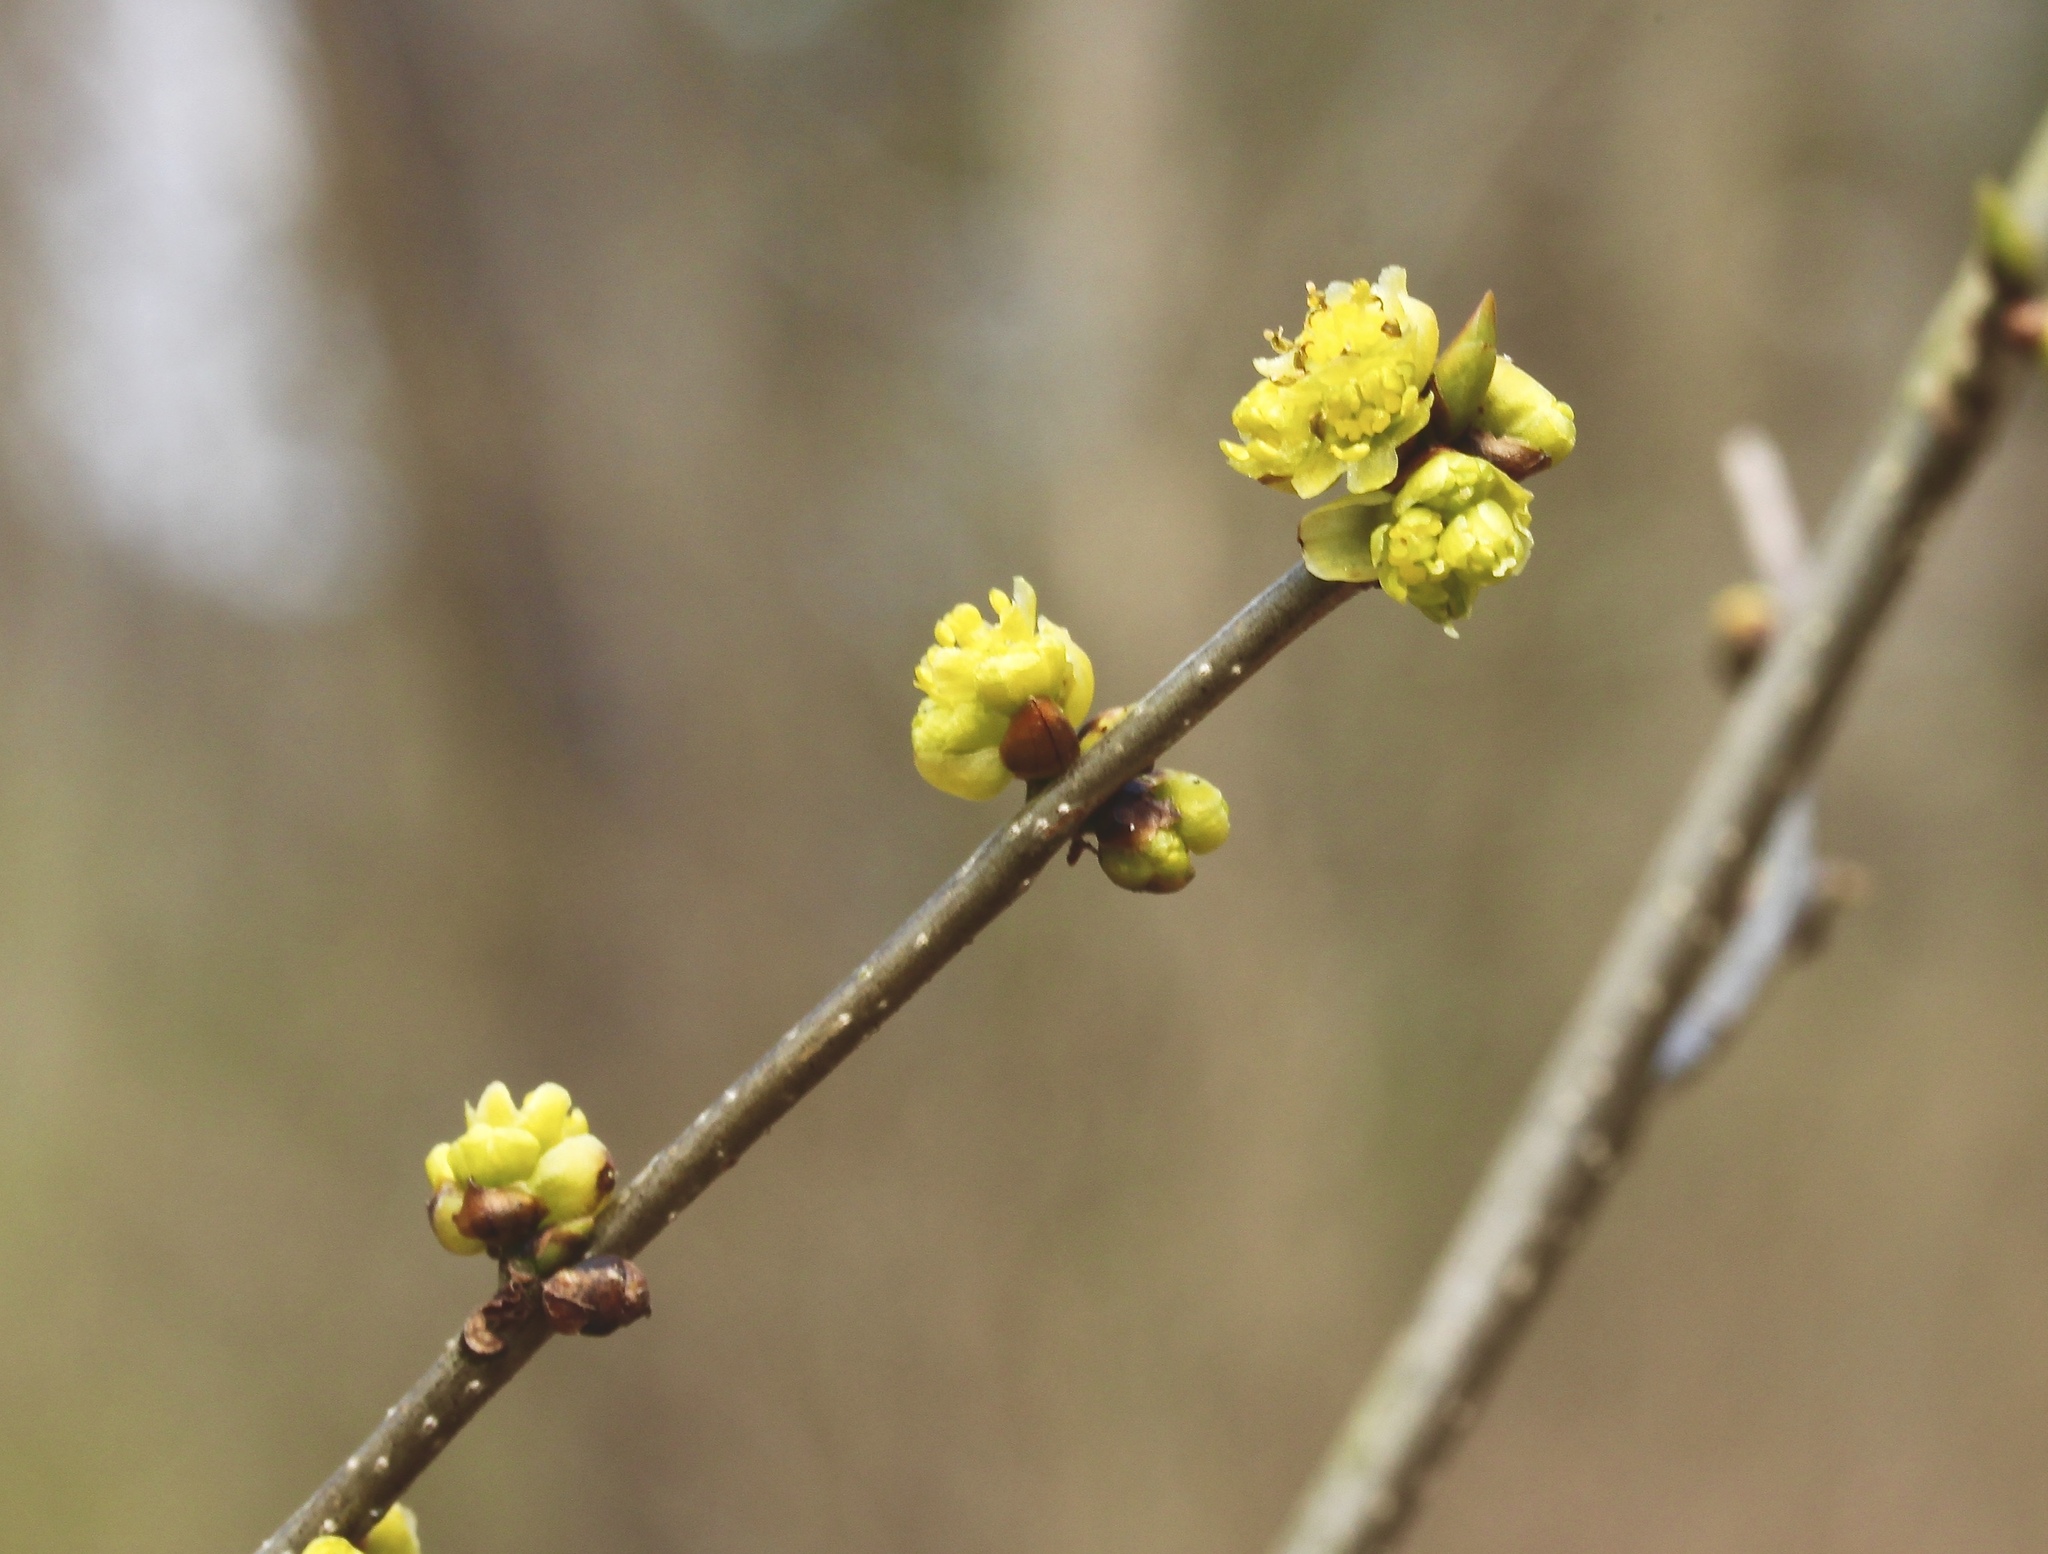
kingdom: Plantae
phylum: Tracheophyta
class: Magnoliopsida
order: Laurales
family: Lauraceae
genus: Lindera
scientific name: Lindera benzoin
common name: Spicebush
